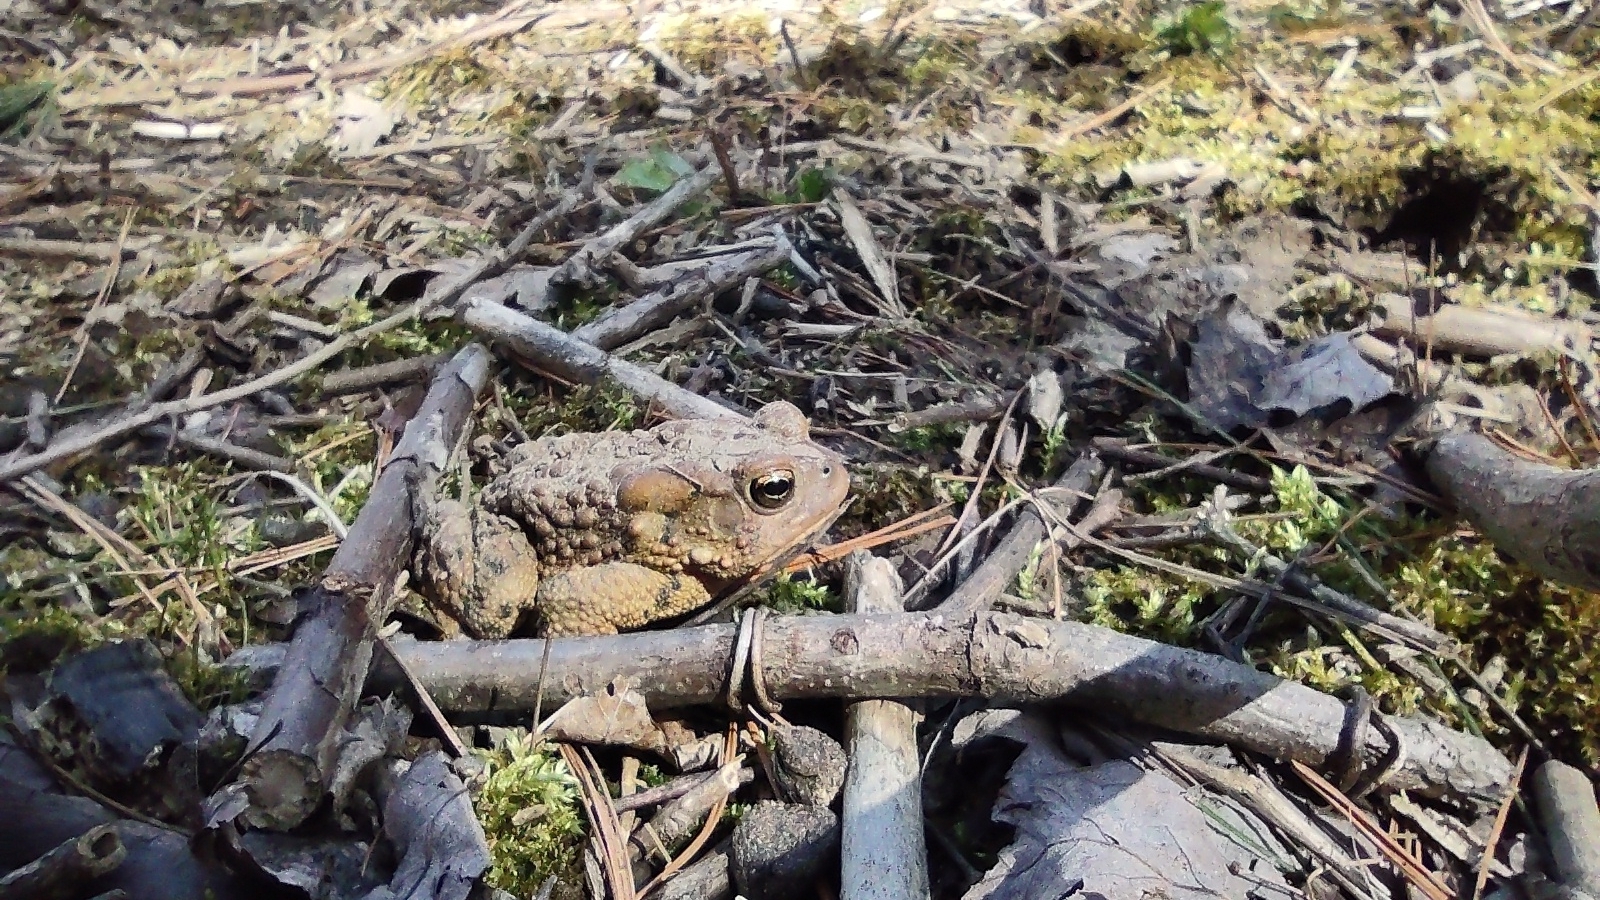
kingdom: Animalia
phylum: Chordata
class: Amphibia
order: Anura
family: Bufonidae
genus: Anaxyrus
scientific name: Anaxyrus americanus
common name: American toad
